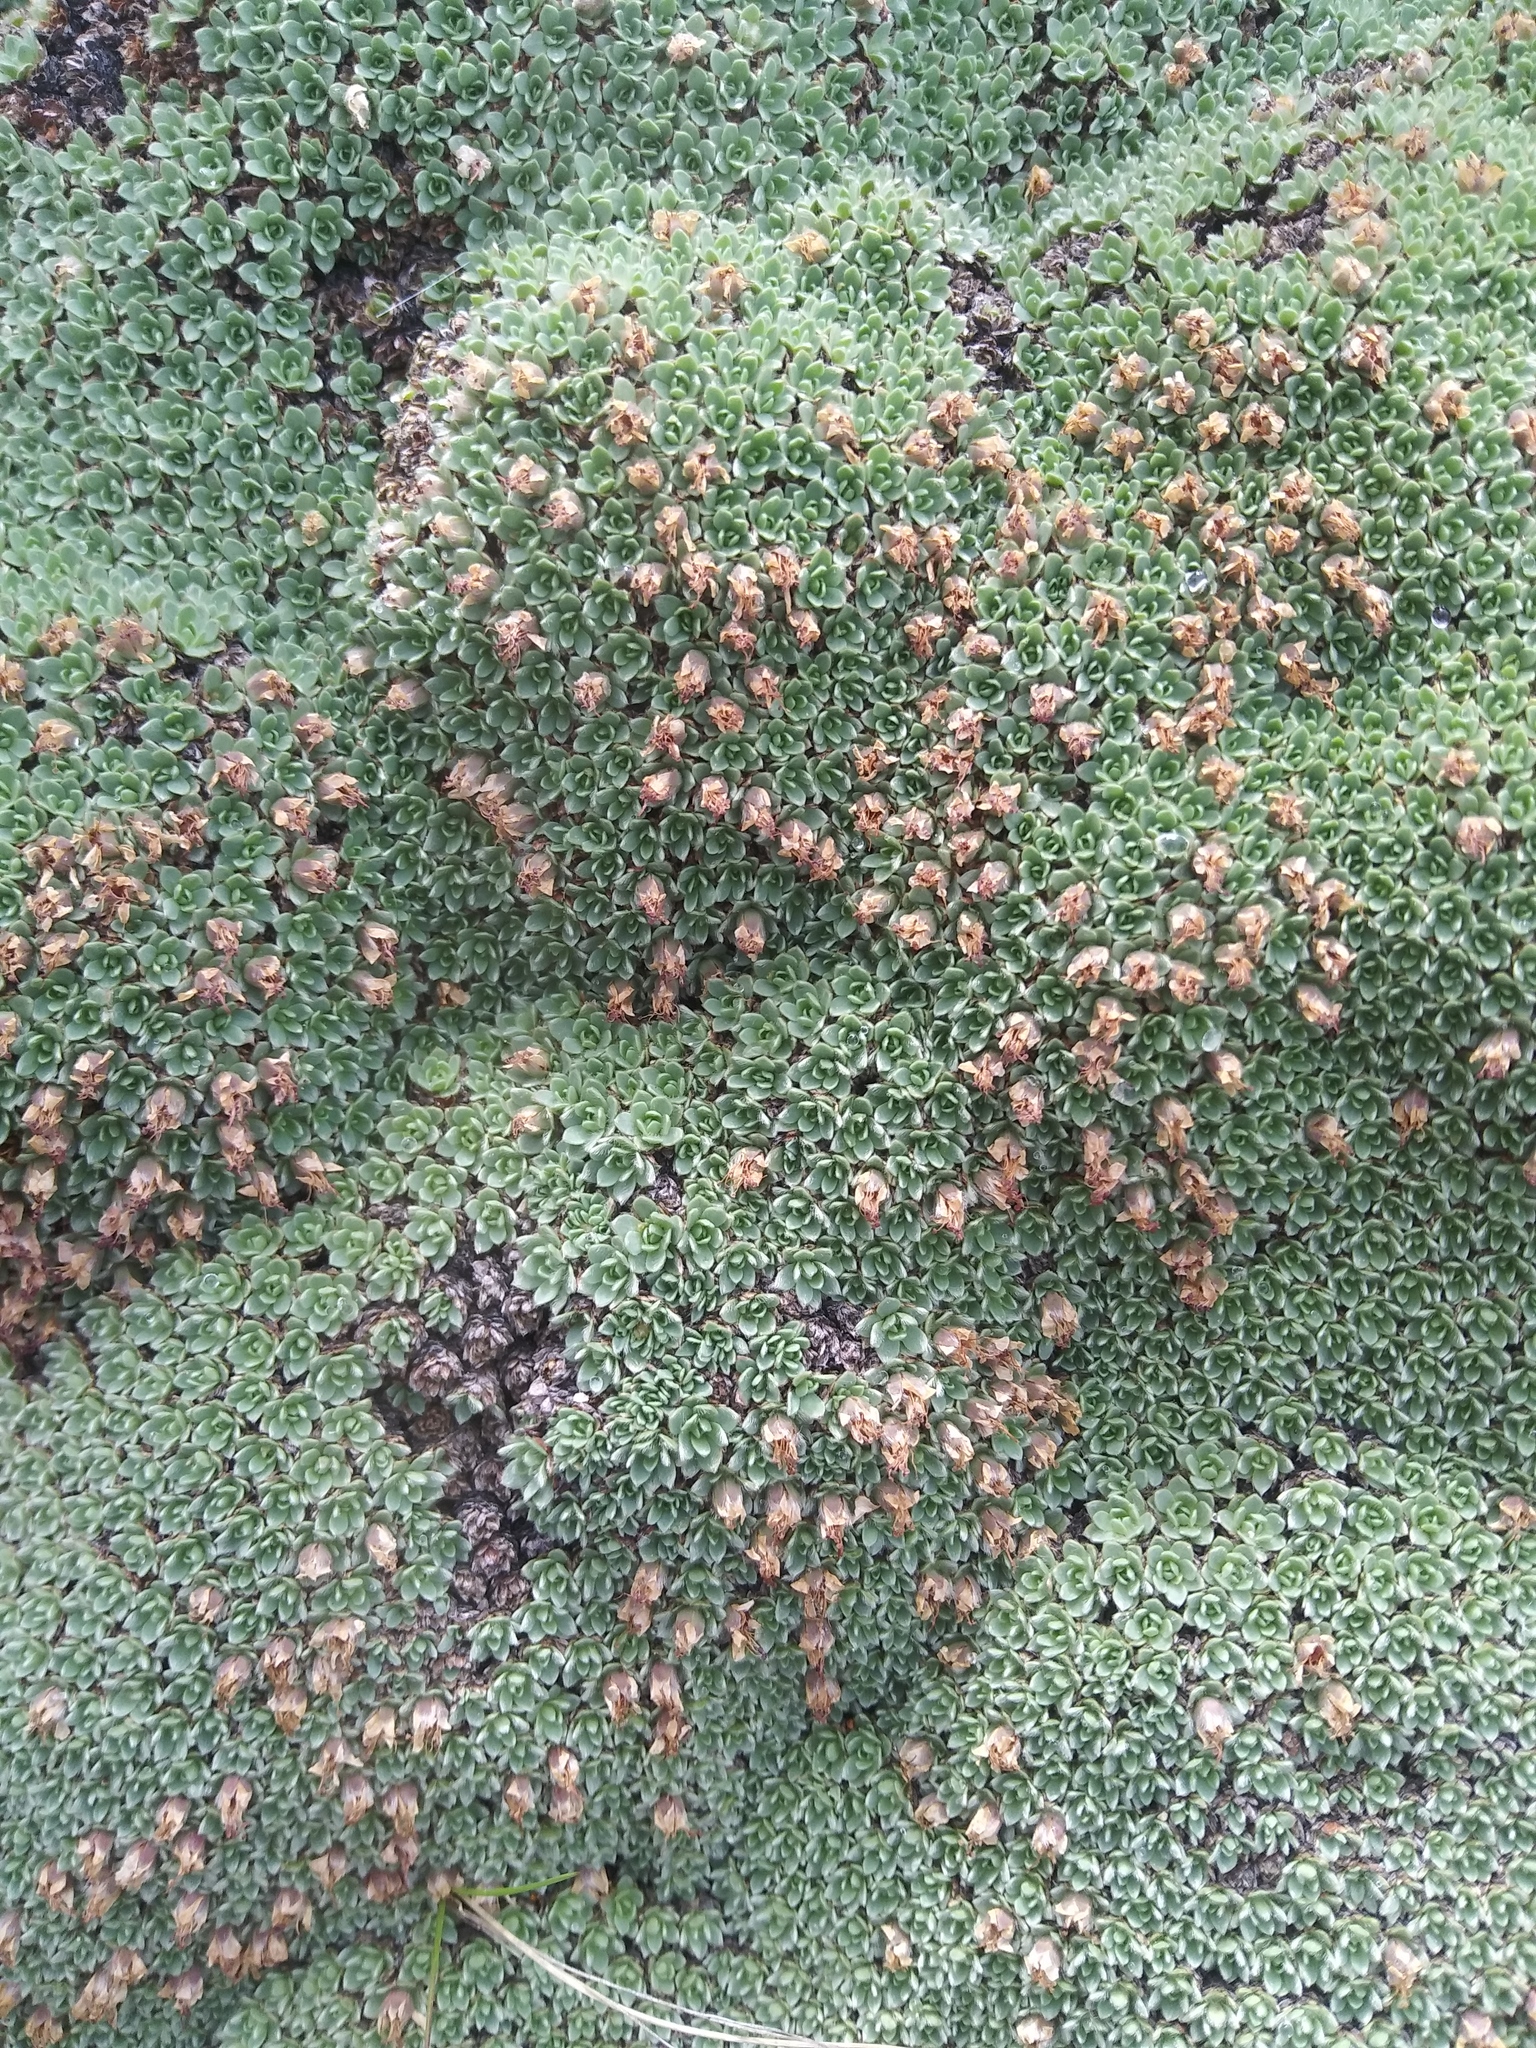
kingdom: Plantae
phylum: Tracheophyta
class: Magnoliopsida
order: Rosales
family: Rosaceae
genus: Kelseya
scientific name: Kelseya uniflora
